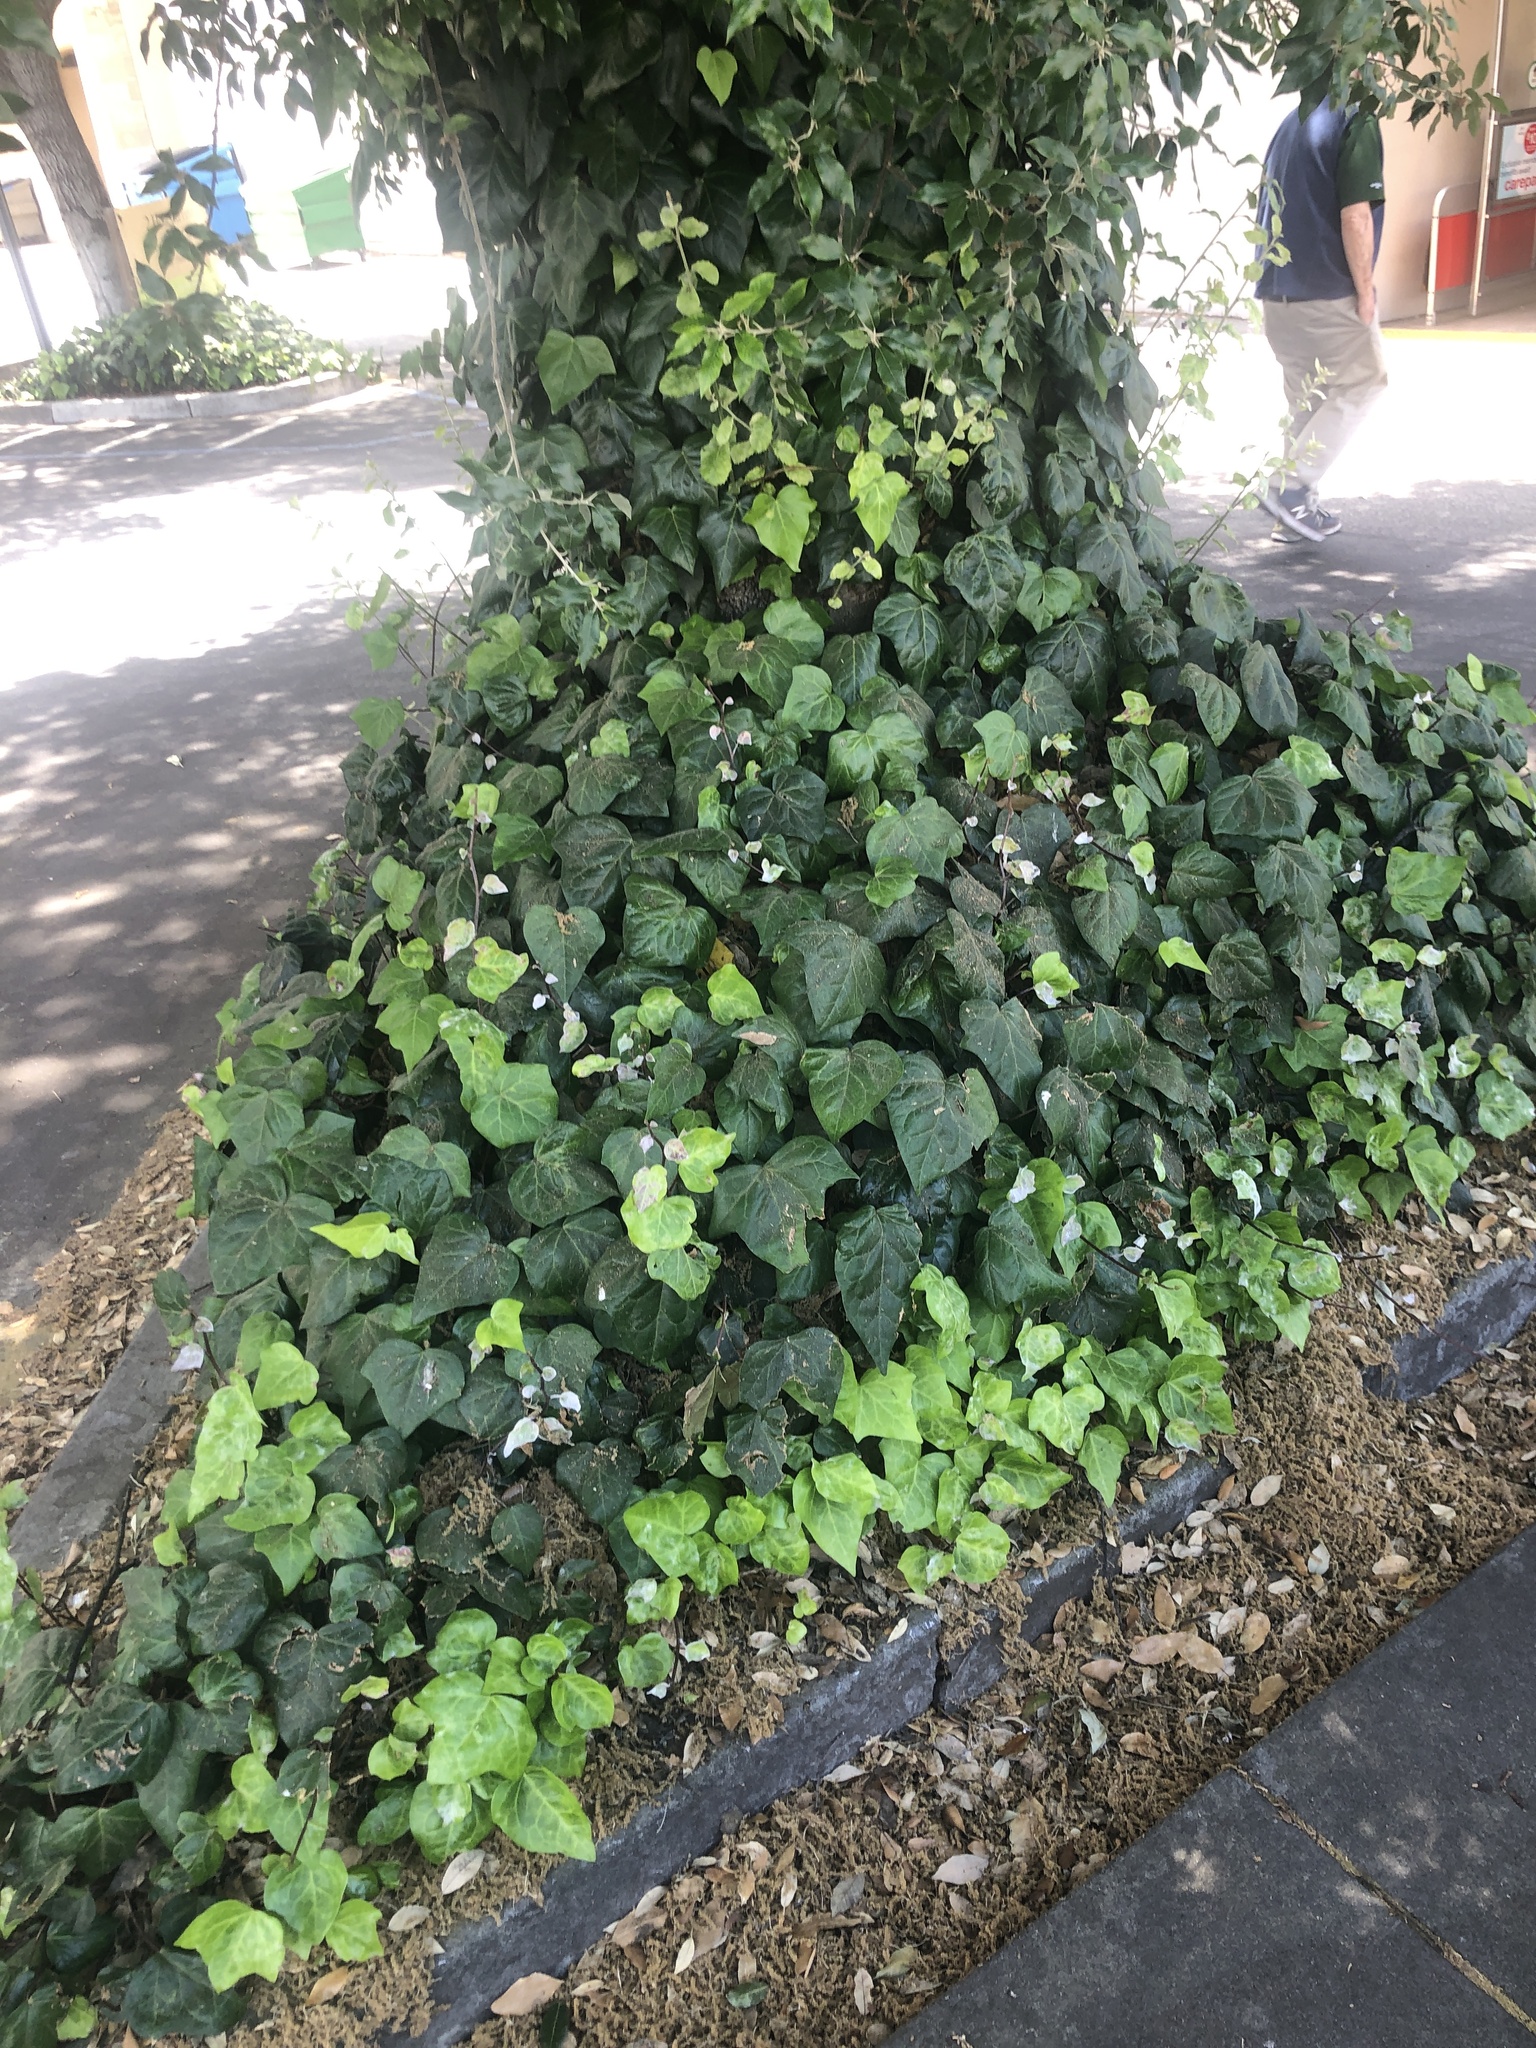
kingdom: Fungi
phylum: Ascomycota
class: Leotiomycetes
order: Helotiales
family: Erysiphaceae
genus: Pseudoidium
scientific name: Pseudoidium araliacearum
